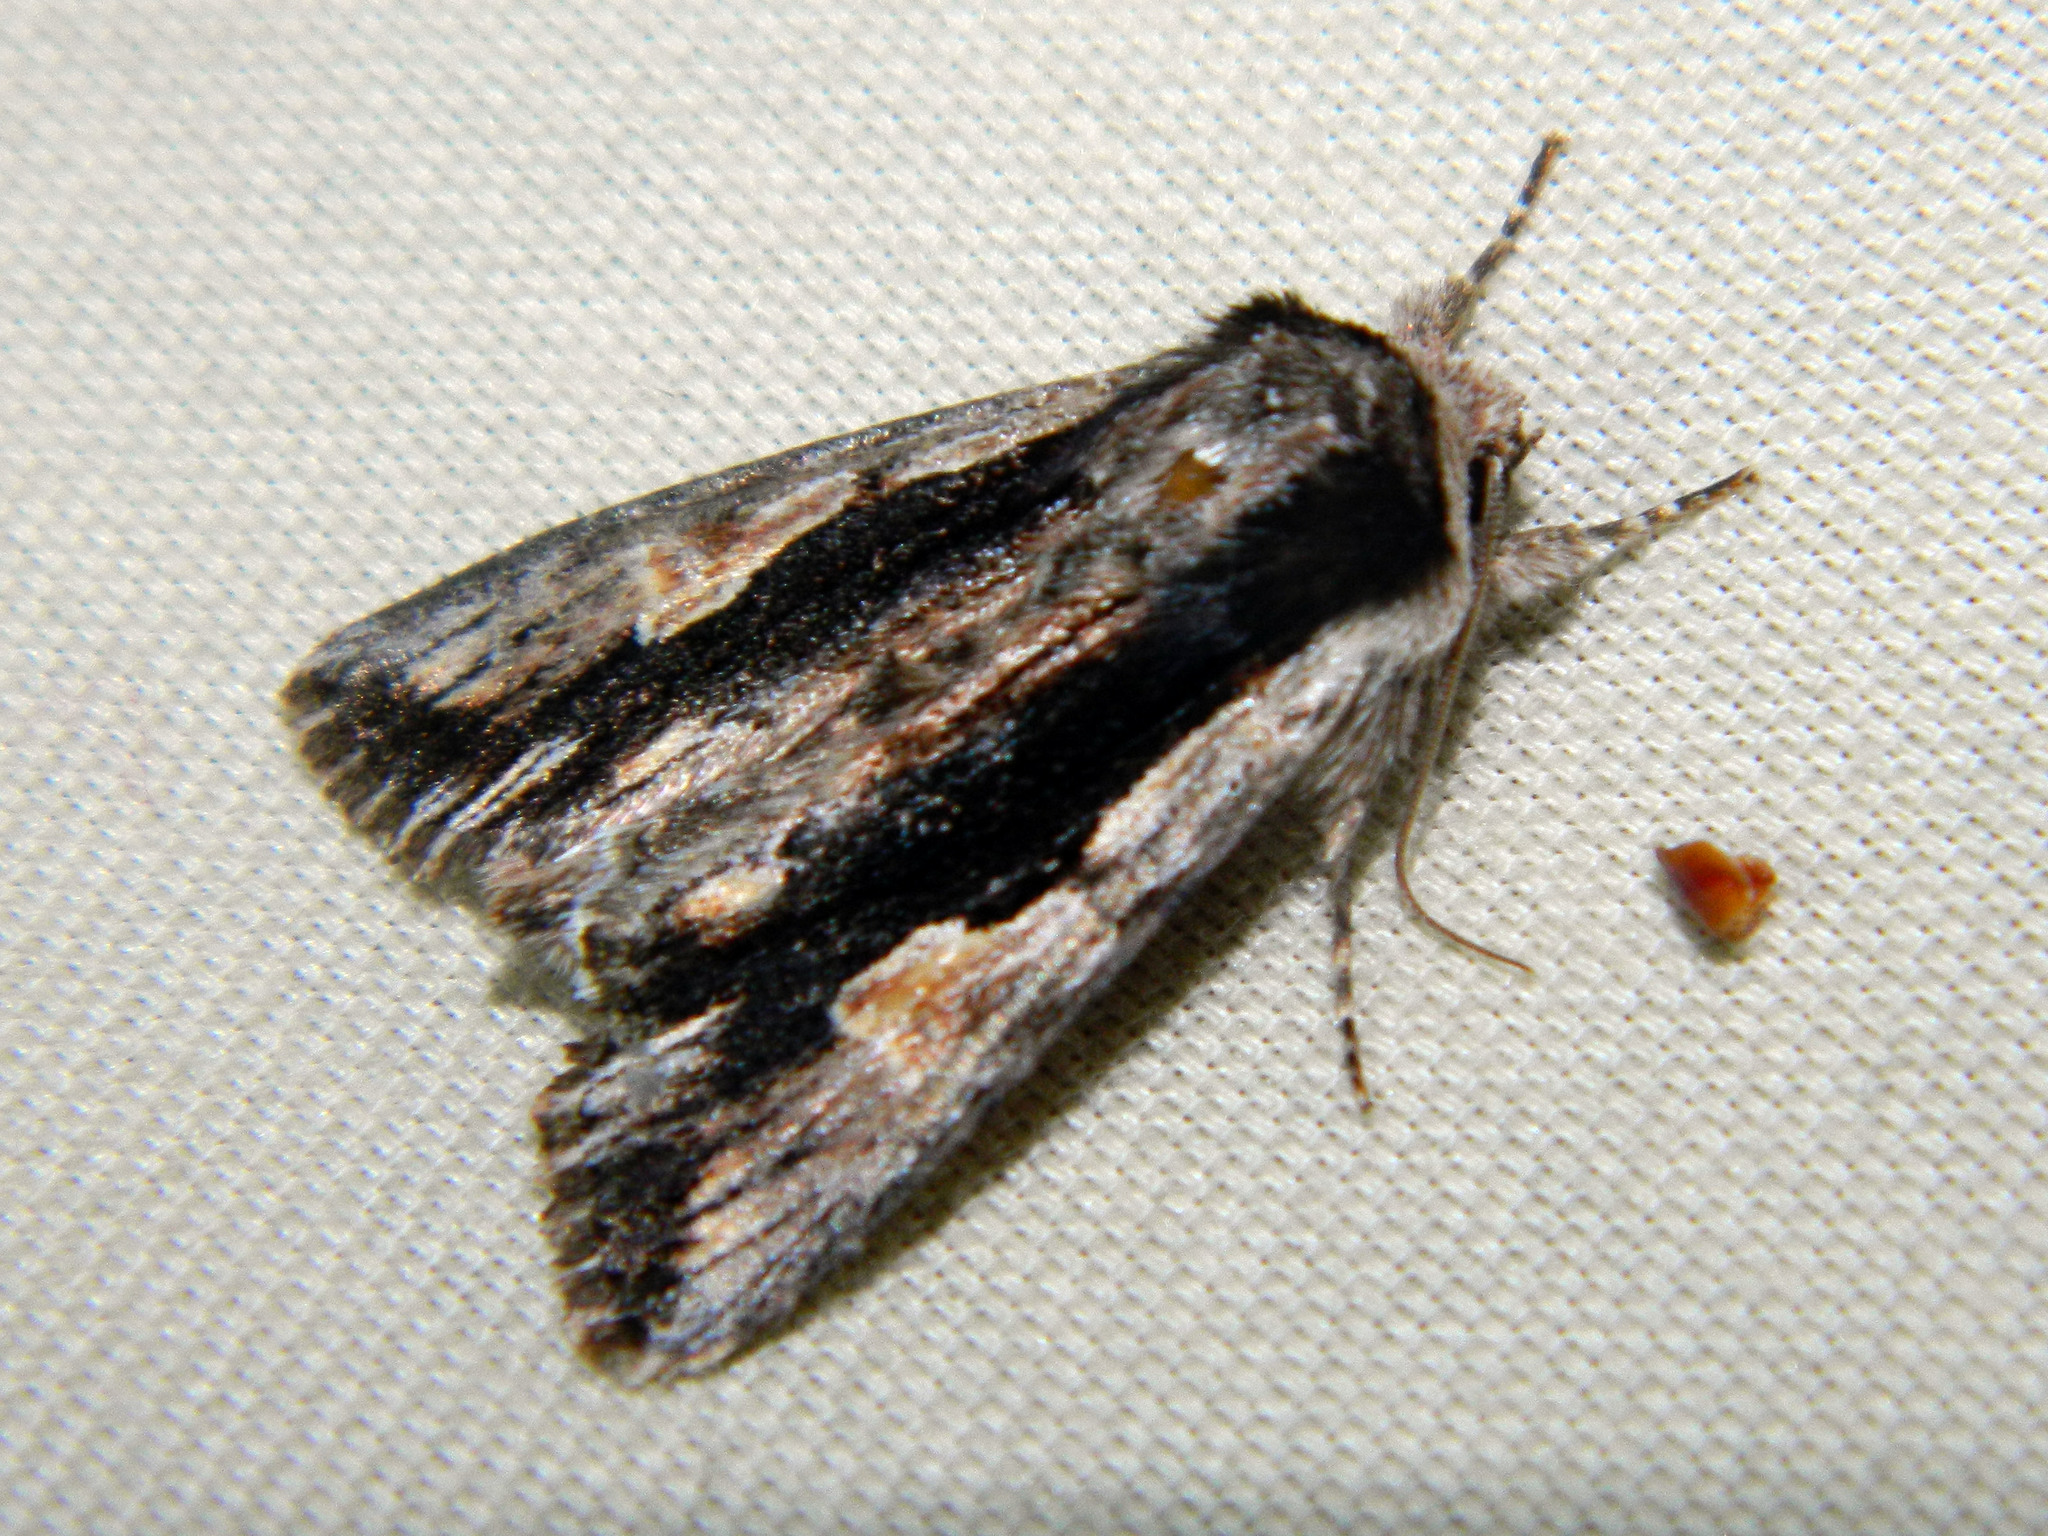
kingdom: Animalia
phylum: Arthropoda
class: Insecta
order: Lepidoptera
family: Noctuidae
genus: Achatia
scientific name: Achatia evicta
